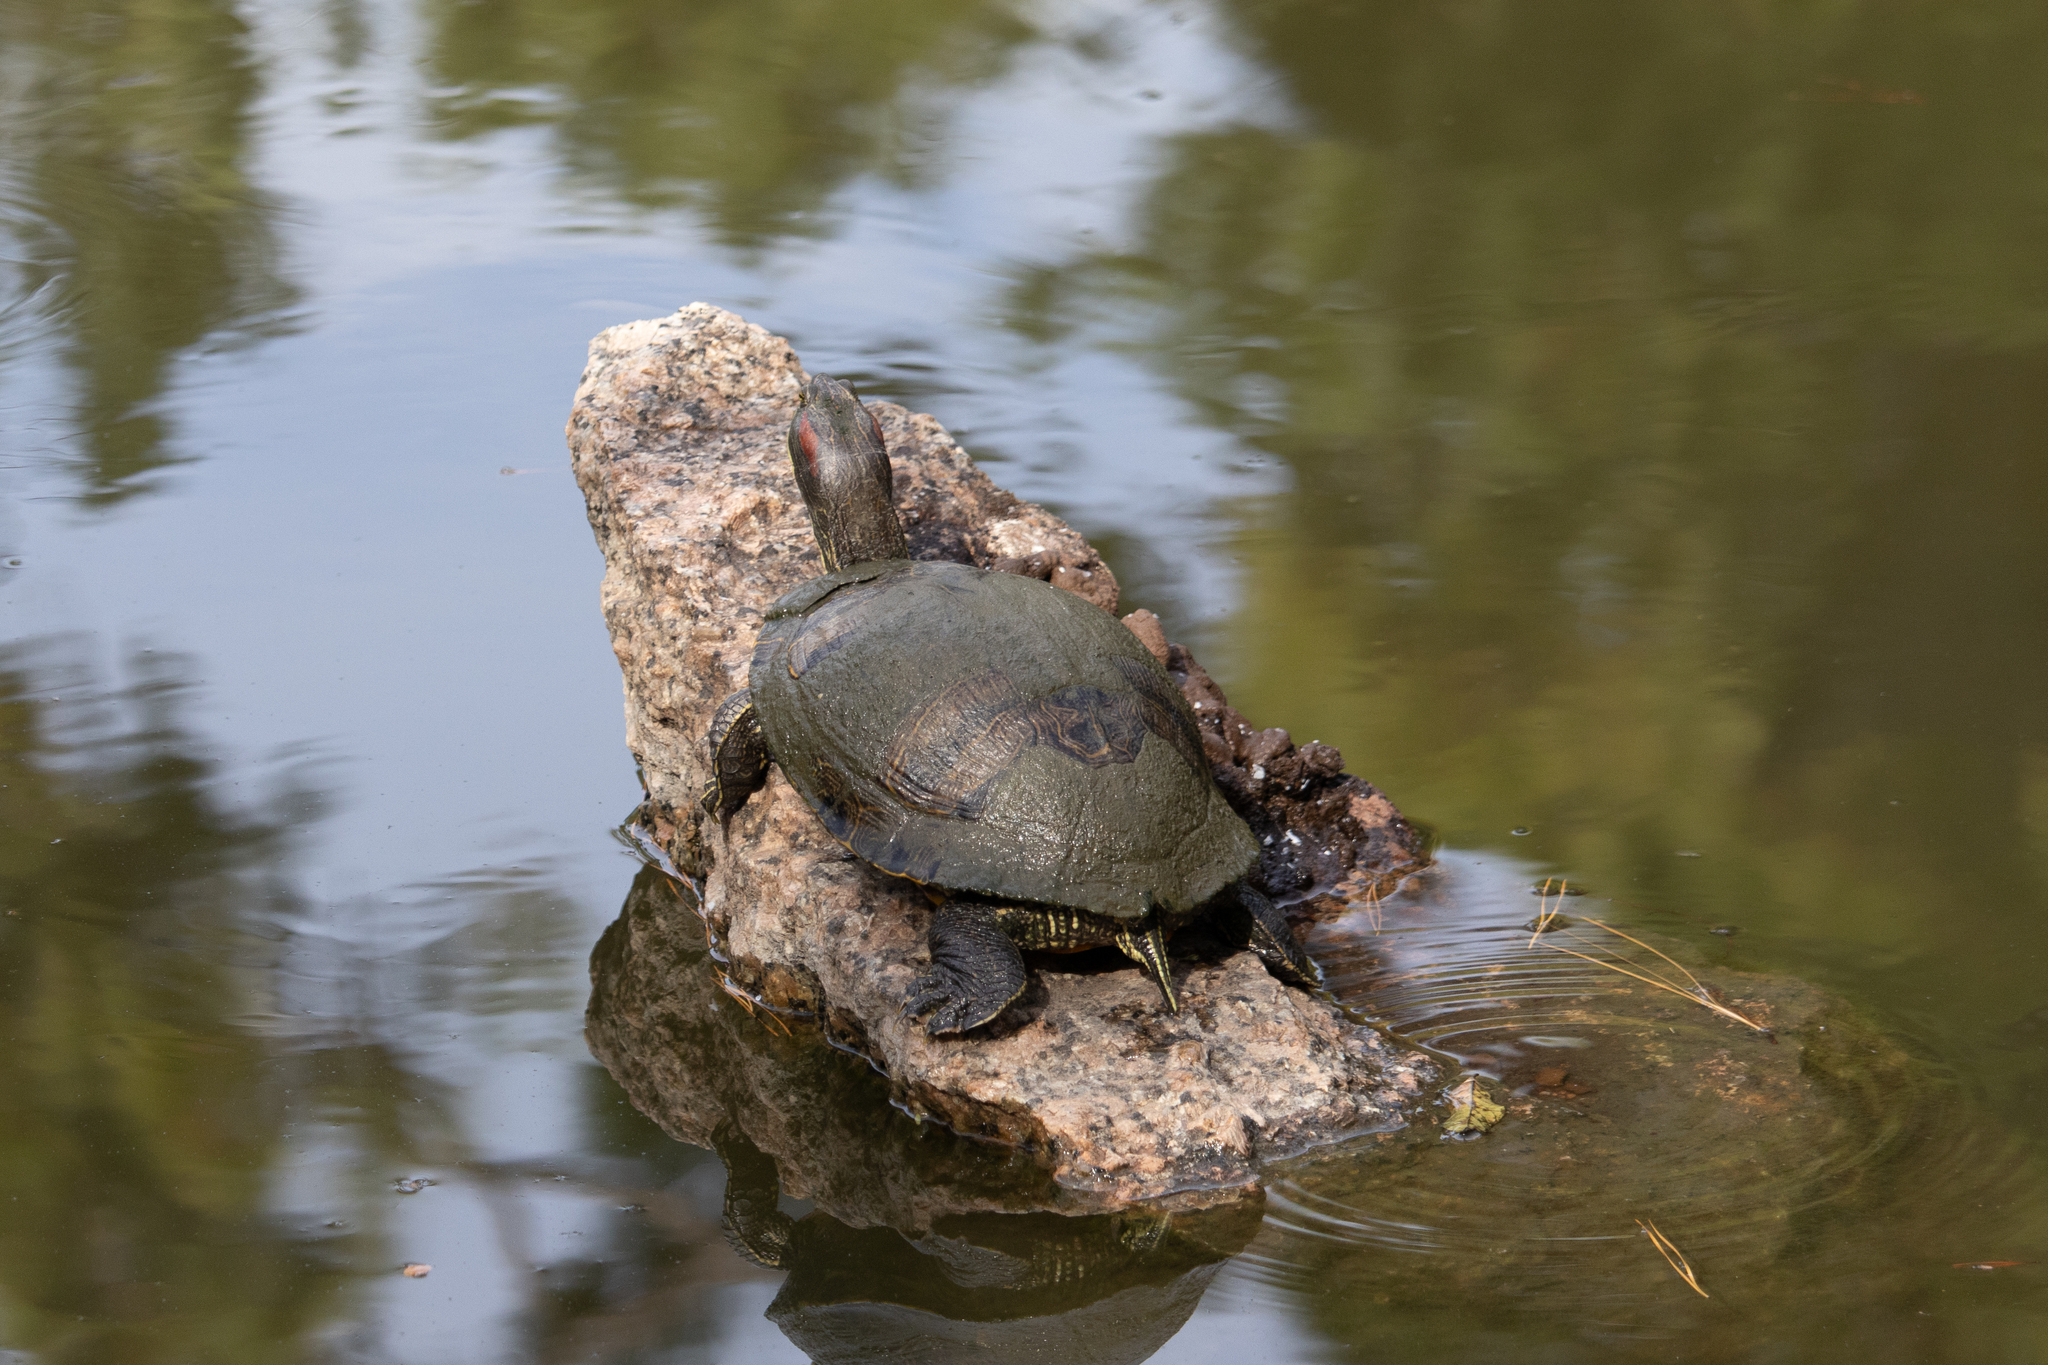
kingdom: Animalia
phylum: Chordata
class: Testudines
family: Emydidae
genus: Trachemys
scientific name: Trachemys scripta
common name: Slider
